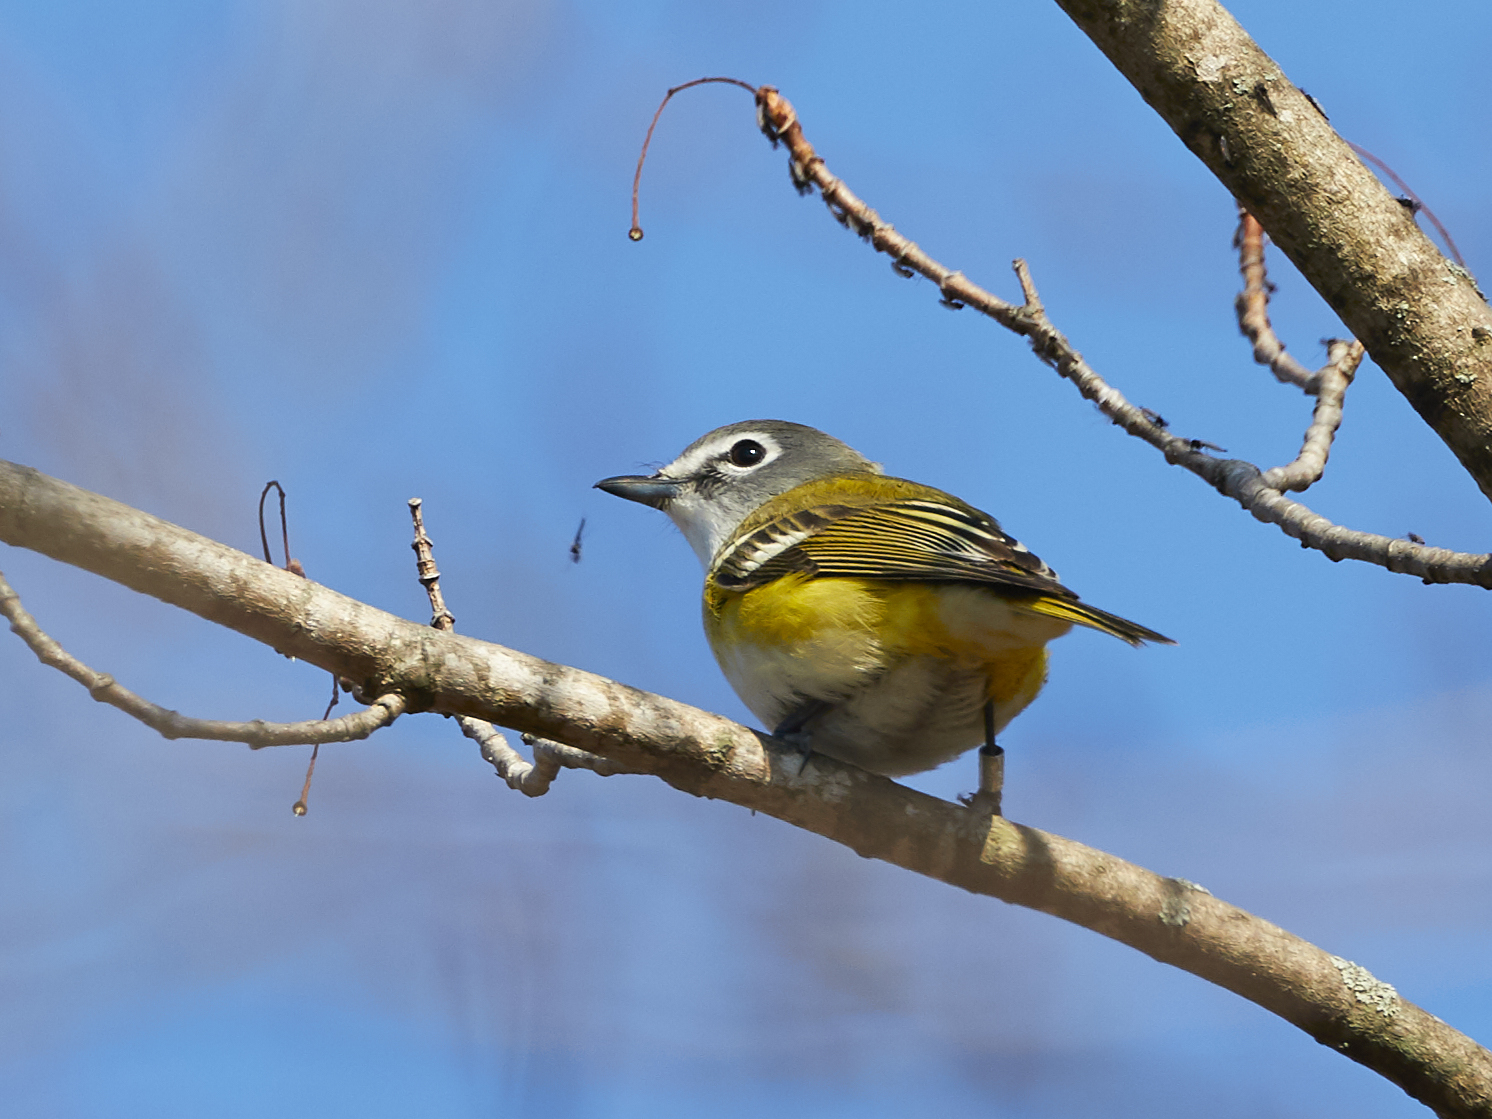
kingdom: Animalia
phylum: Chordata
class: Aves
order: Passeriformes
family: Vireonidae
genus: Vireo
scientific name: Vireo solitarius
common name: Blue-headed vireo
